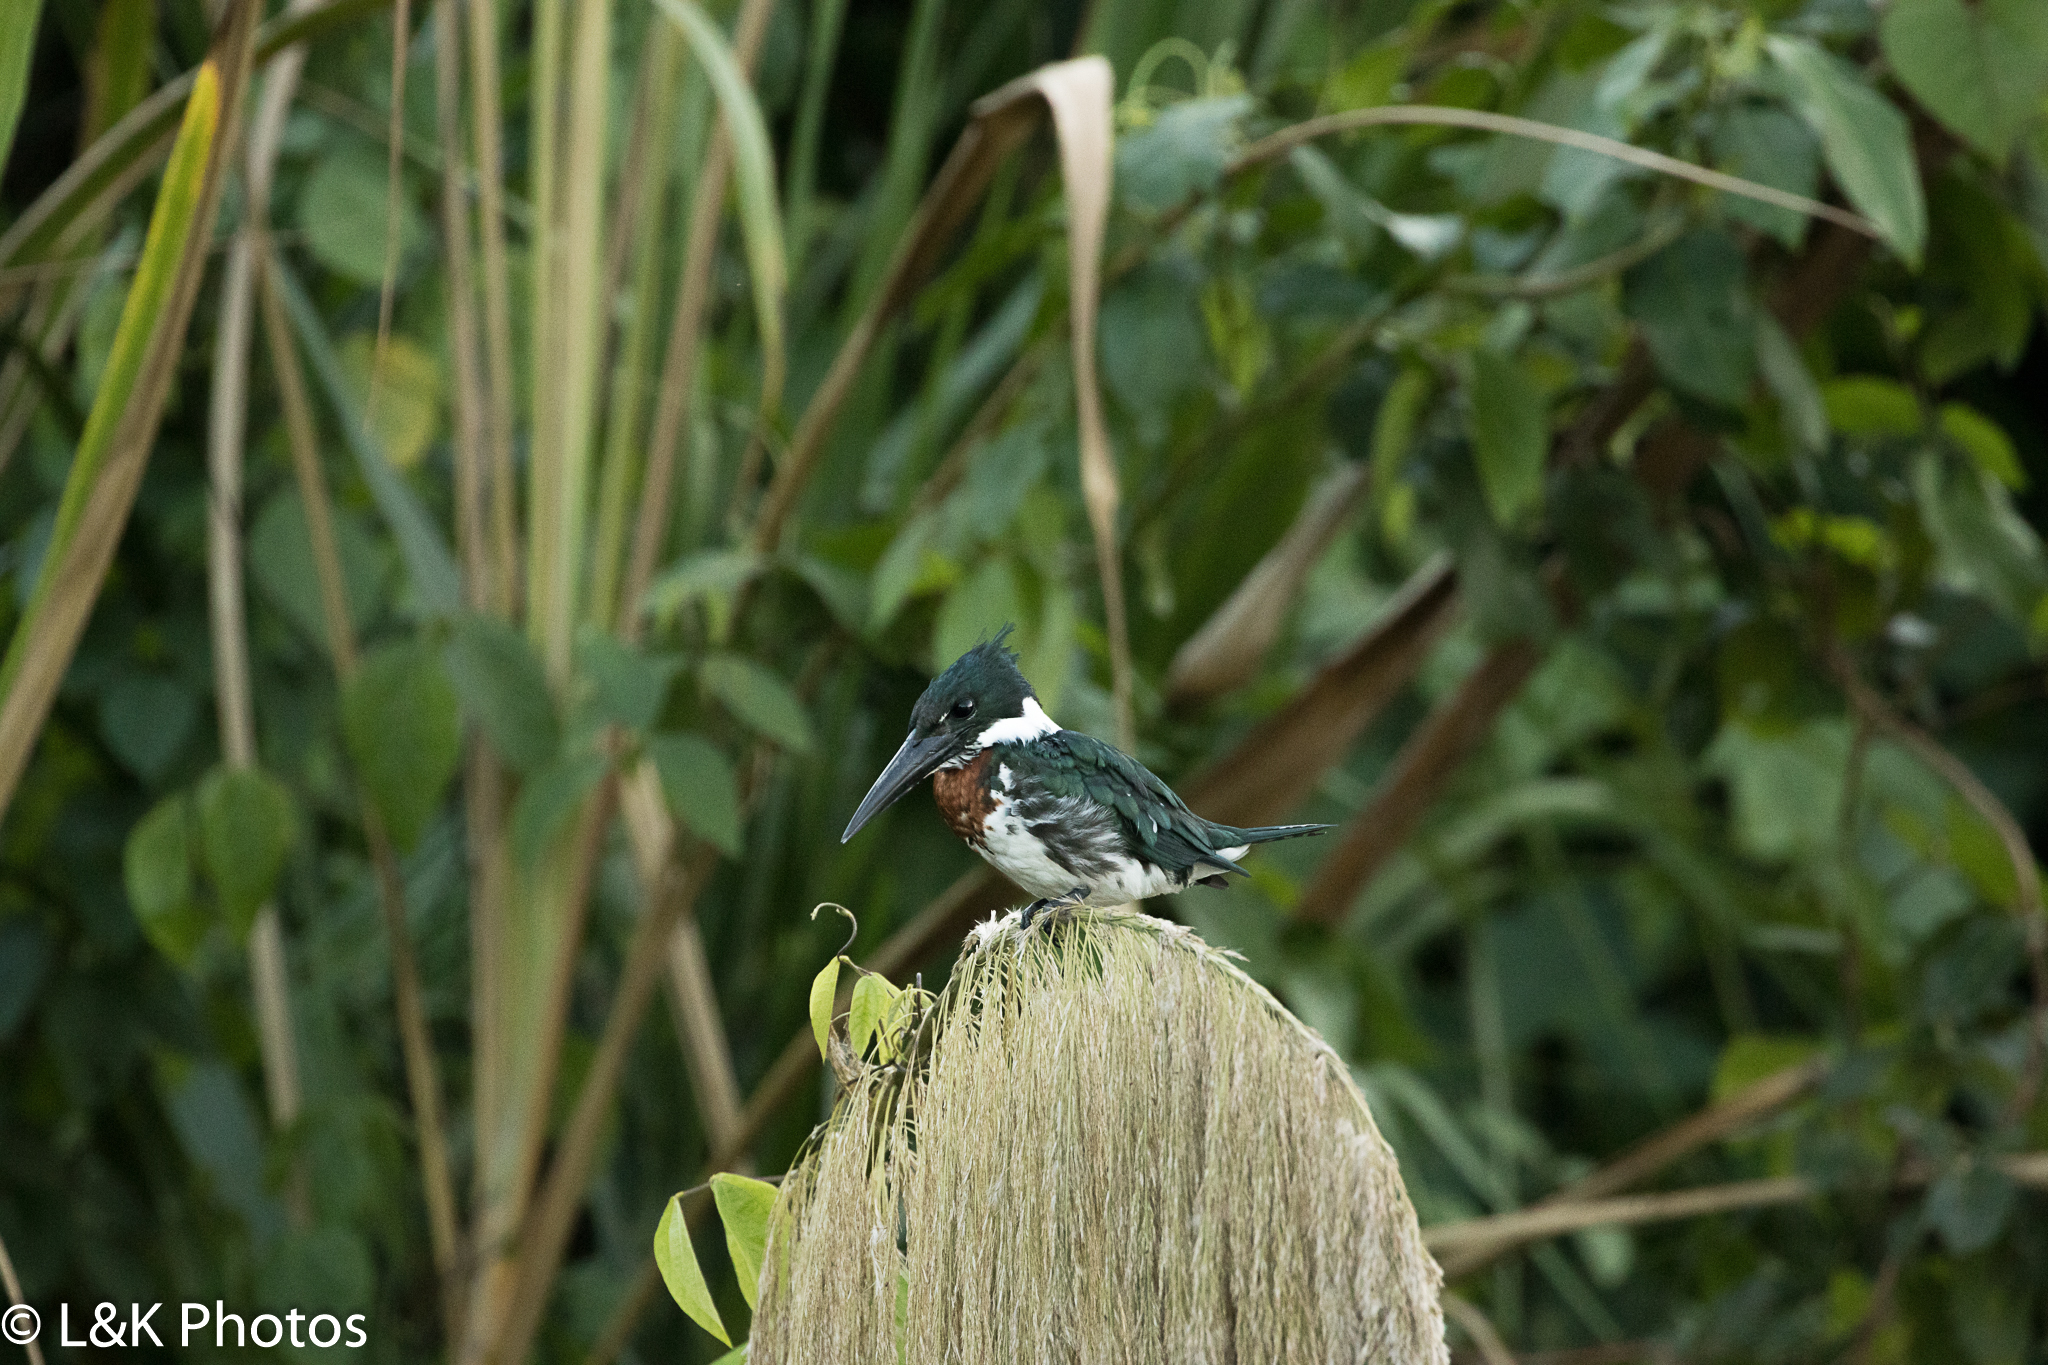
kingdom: Animalia
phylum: Chordata
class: Aves
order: Coraciiformes
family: Alcedinidae
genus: Chloroceryle
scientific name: Chloroceryle amazona
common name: Amazon kingfisher
